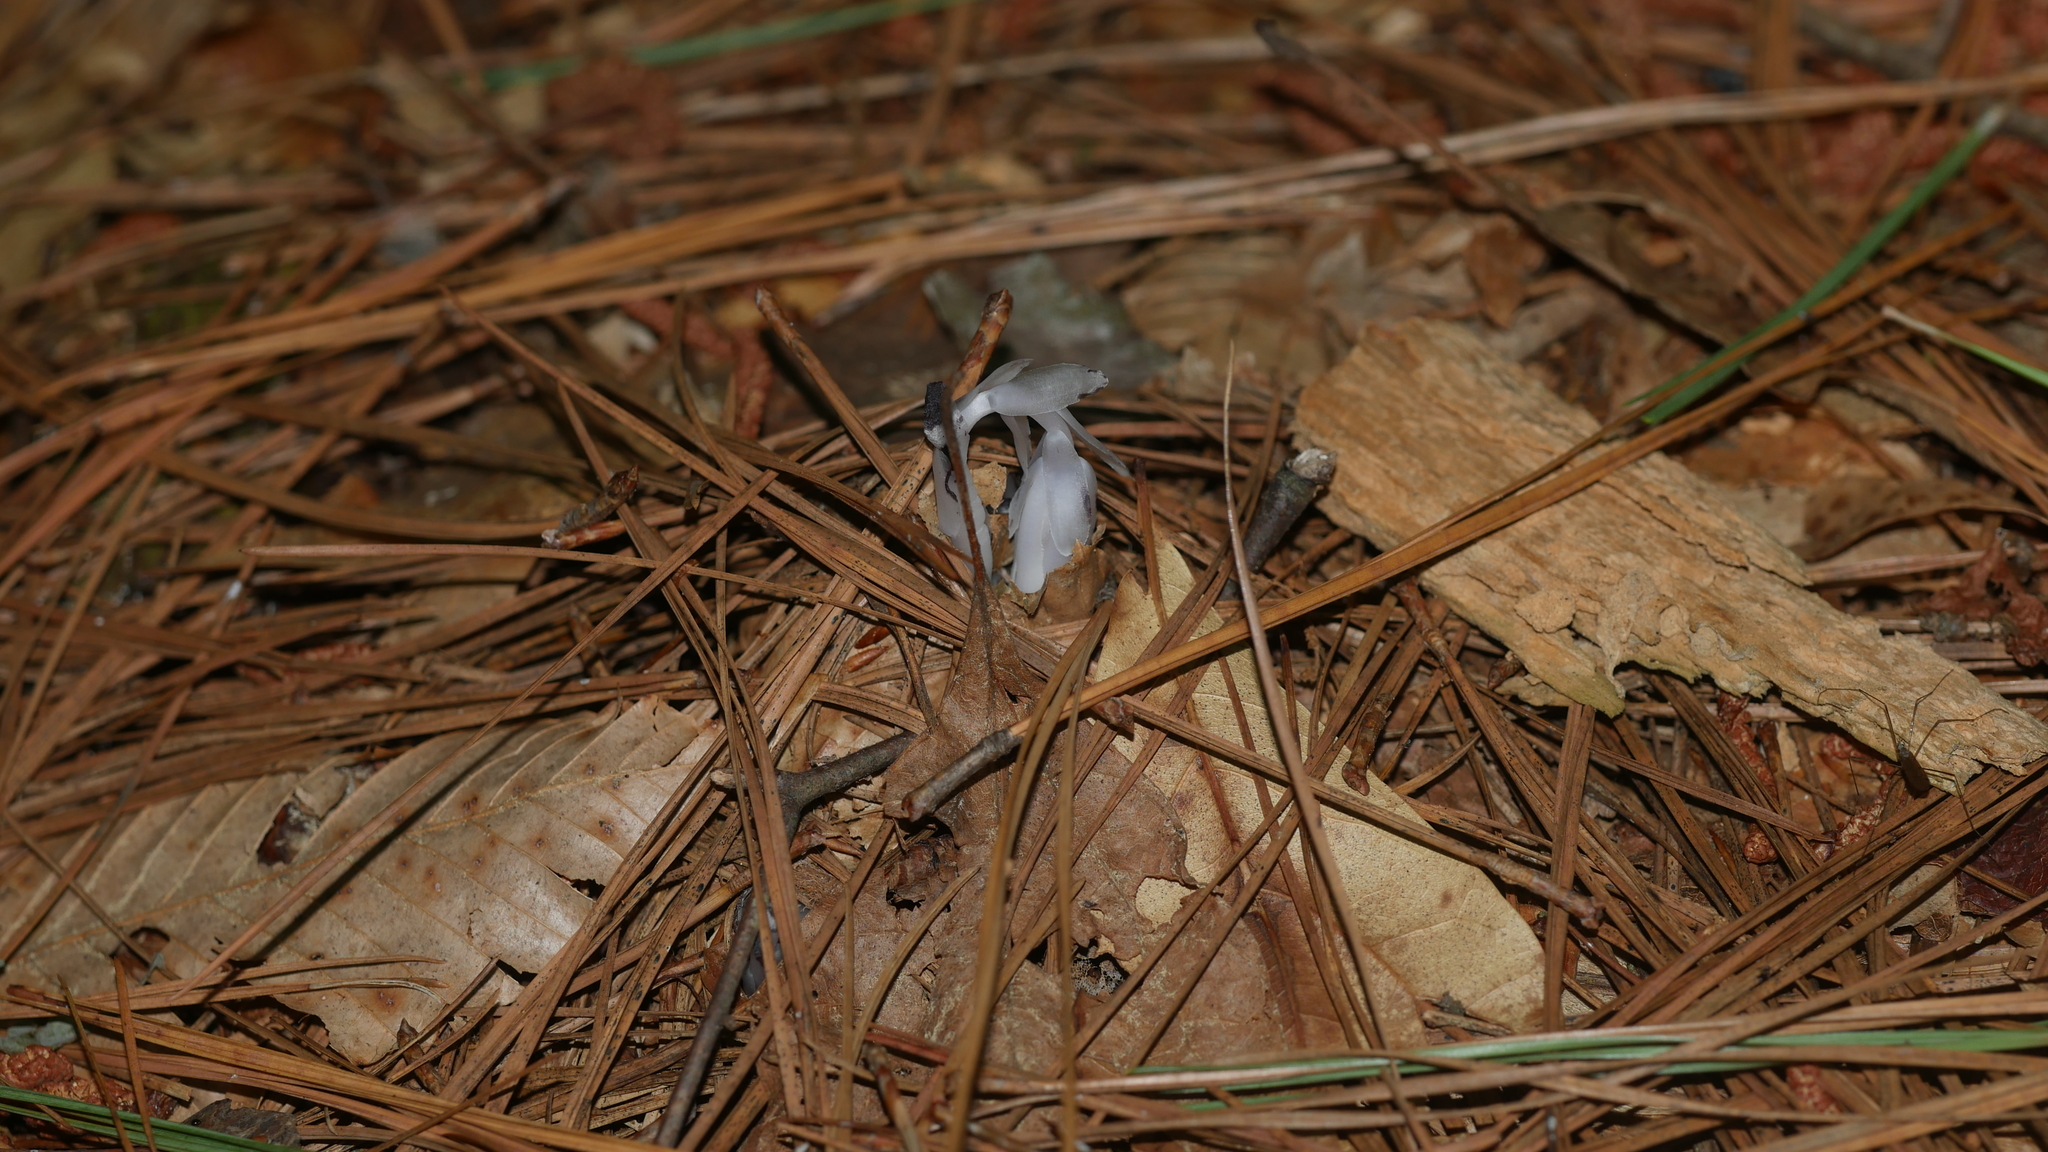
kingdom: Plantae
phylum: Tracheophyta
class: Magnoliopsida
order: Ericales
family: Ericaceae
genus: Monotropa
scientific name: Monotropa uniflora
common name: Convulsion root
